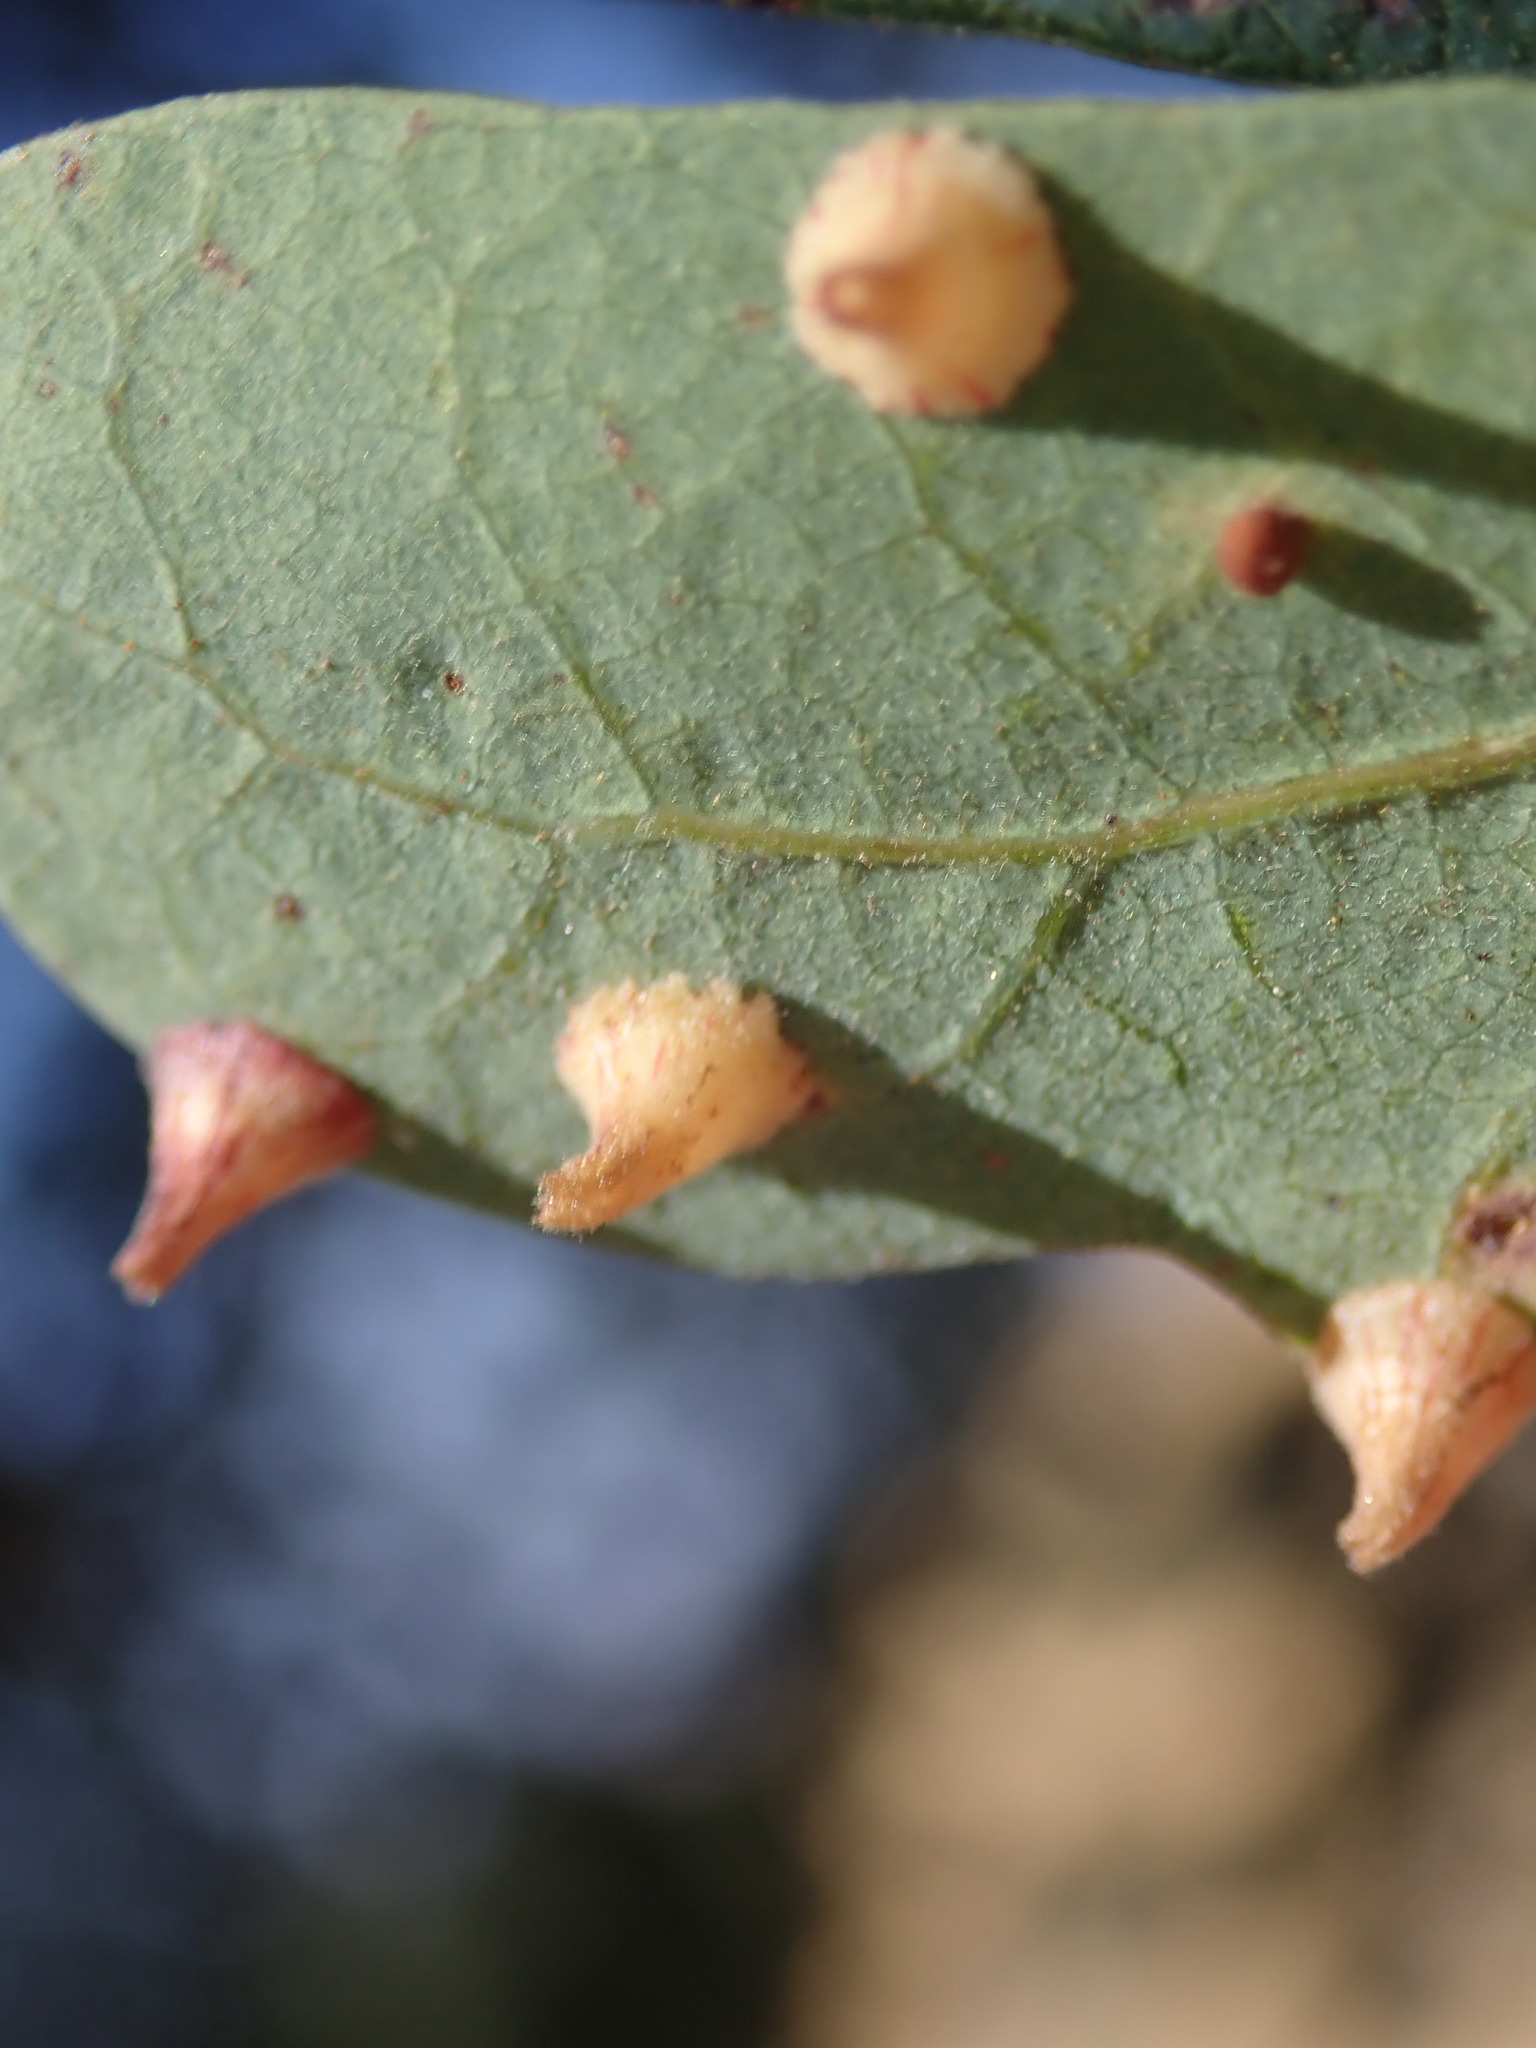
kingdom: Animalia
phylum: Arthropoda
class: Insecta
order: Hymenoptera
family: Cynipidae
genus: Andricus
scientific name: Andricus
